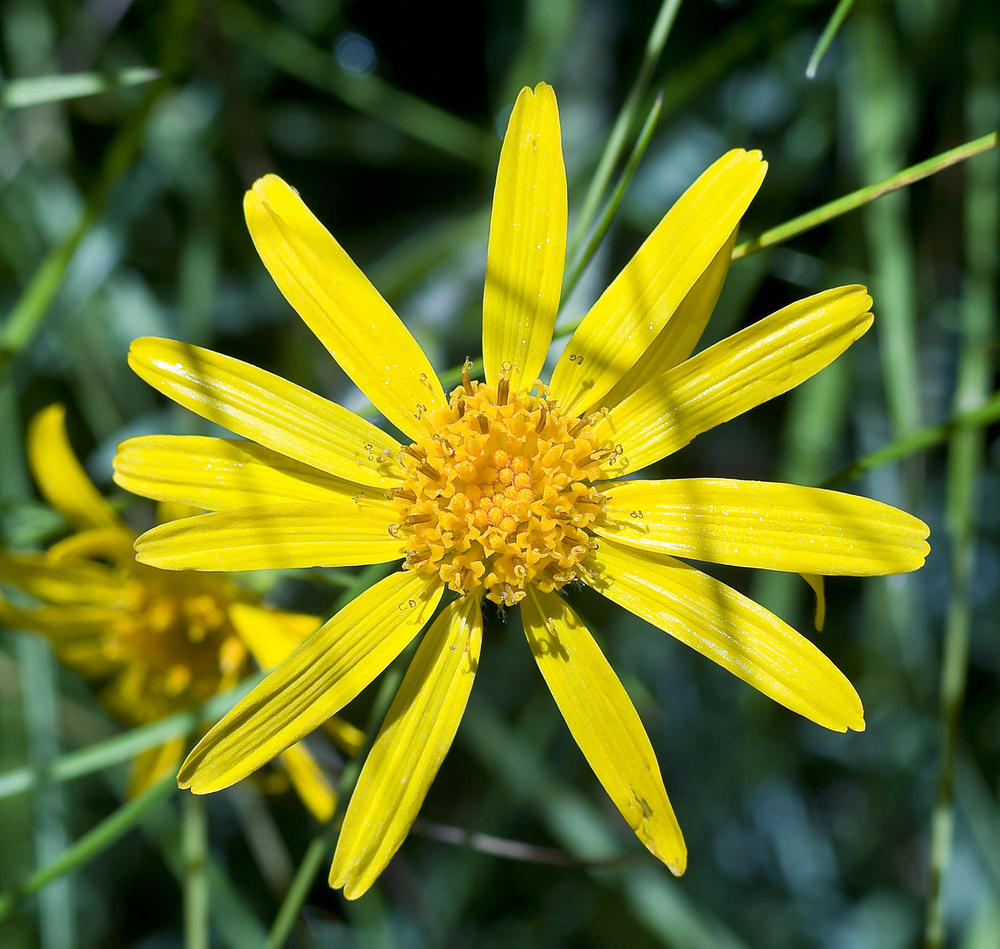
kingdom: Plantae
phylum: Tracheophyta
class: Magnoliopsida
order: Asterales
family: Asteraceae
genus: Arnica
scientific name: Arnica montana
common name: Leopard's bane
